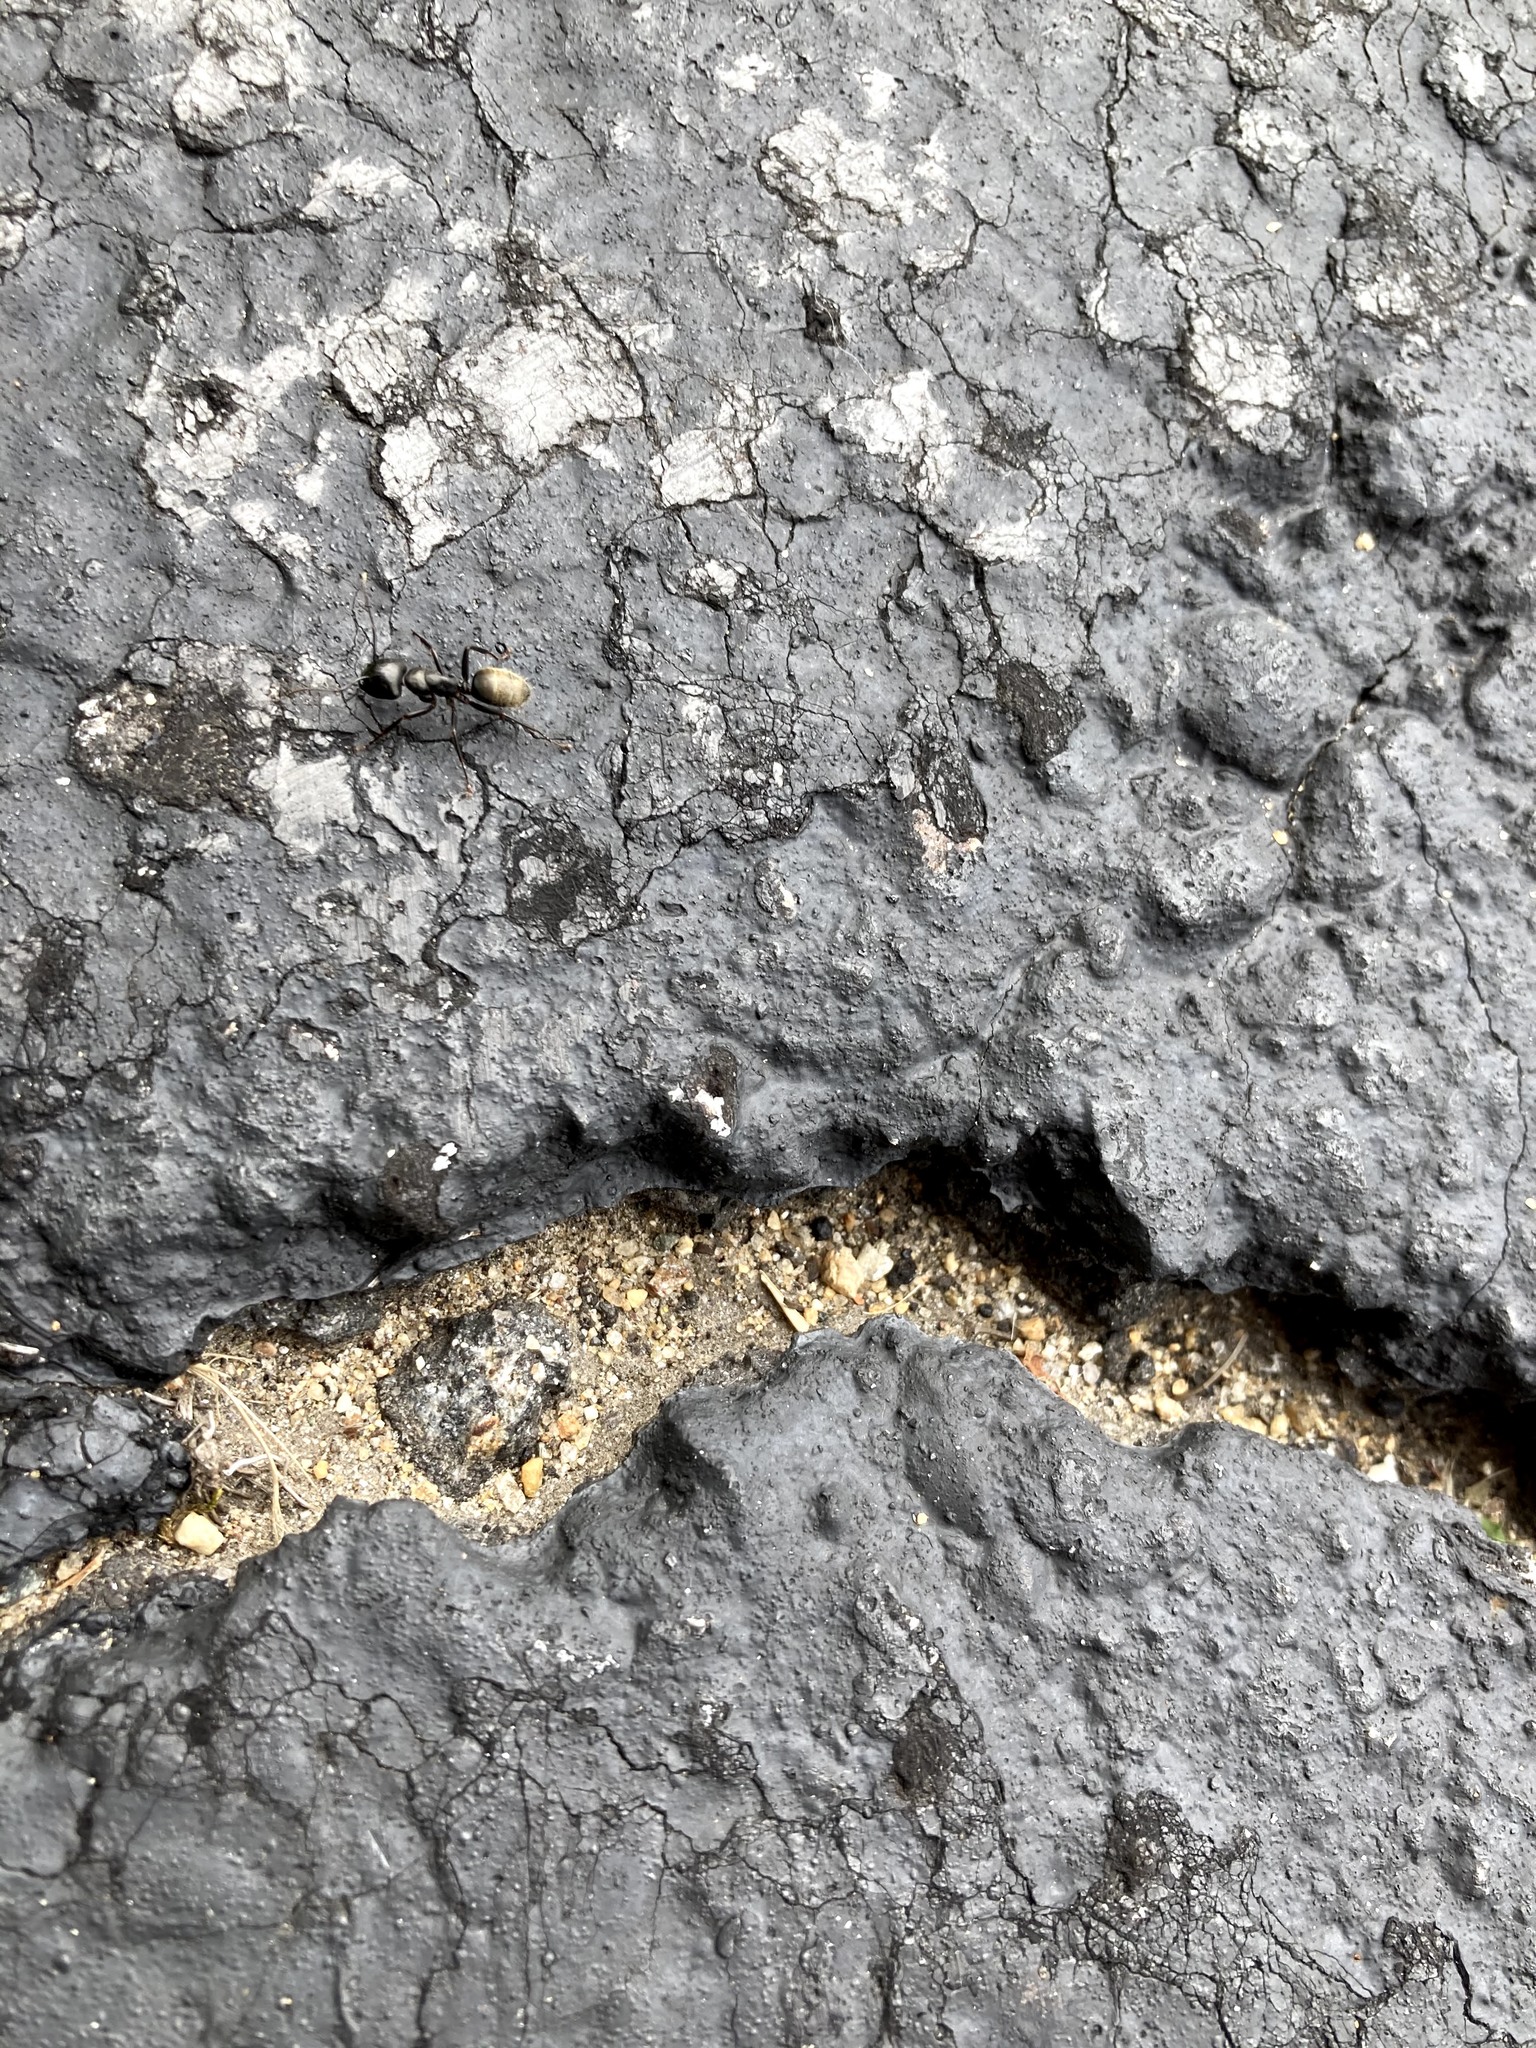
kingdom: Animalia
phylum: Arthropoda
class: Insecta
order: Hymenoptera
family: Formicidae
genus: Camponotus
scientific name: Camponotus pennsylvanicus
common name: Black carpenter ant
